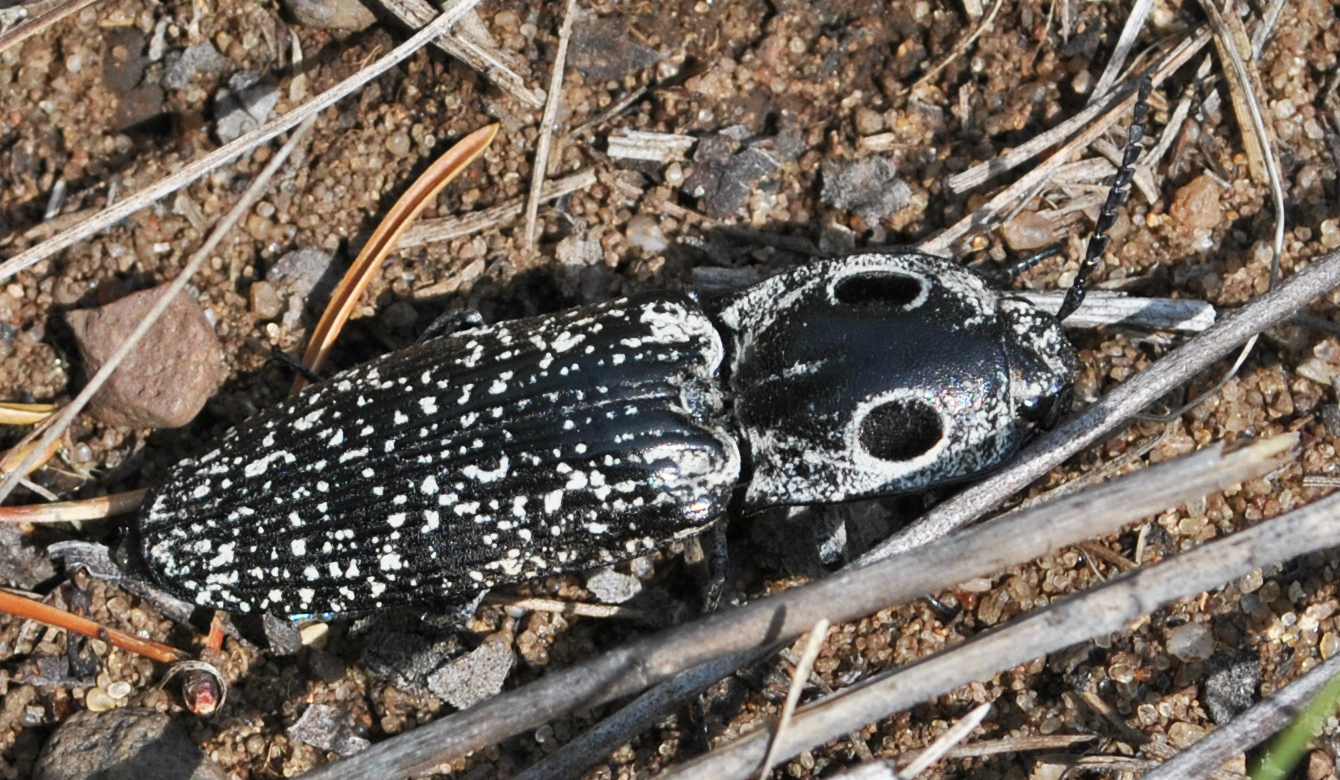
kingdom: Animalia
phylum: Arthropoda
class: Insecta
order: Coleoptera
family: Elateridae
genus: Alaus
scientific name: Alaus oculatus
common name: Eastern eyed click beetle
